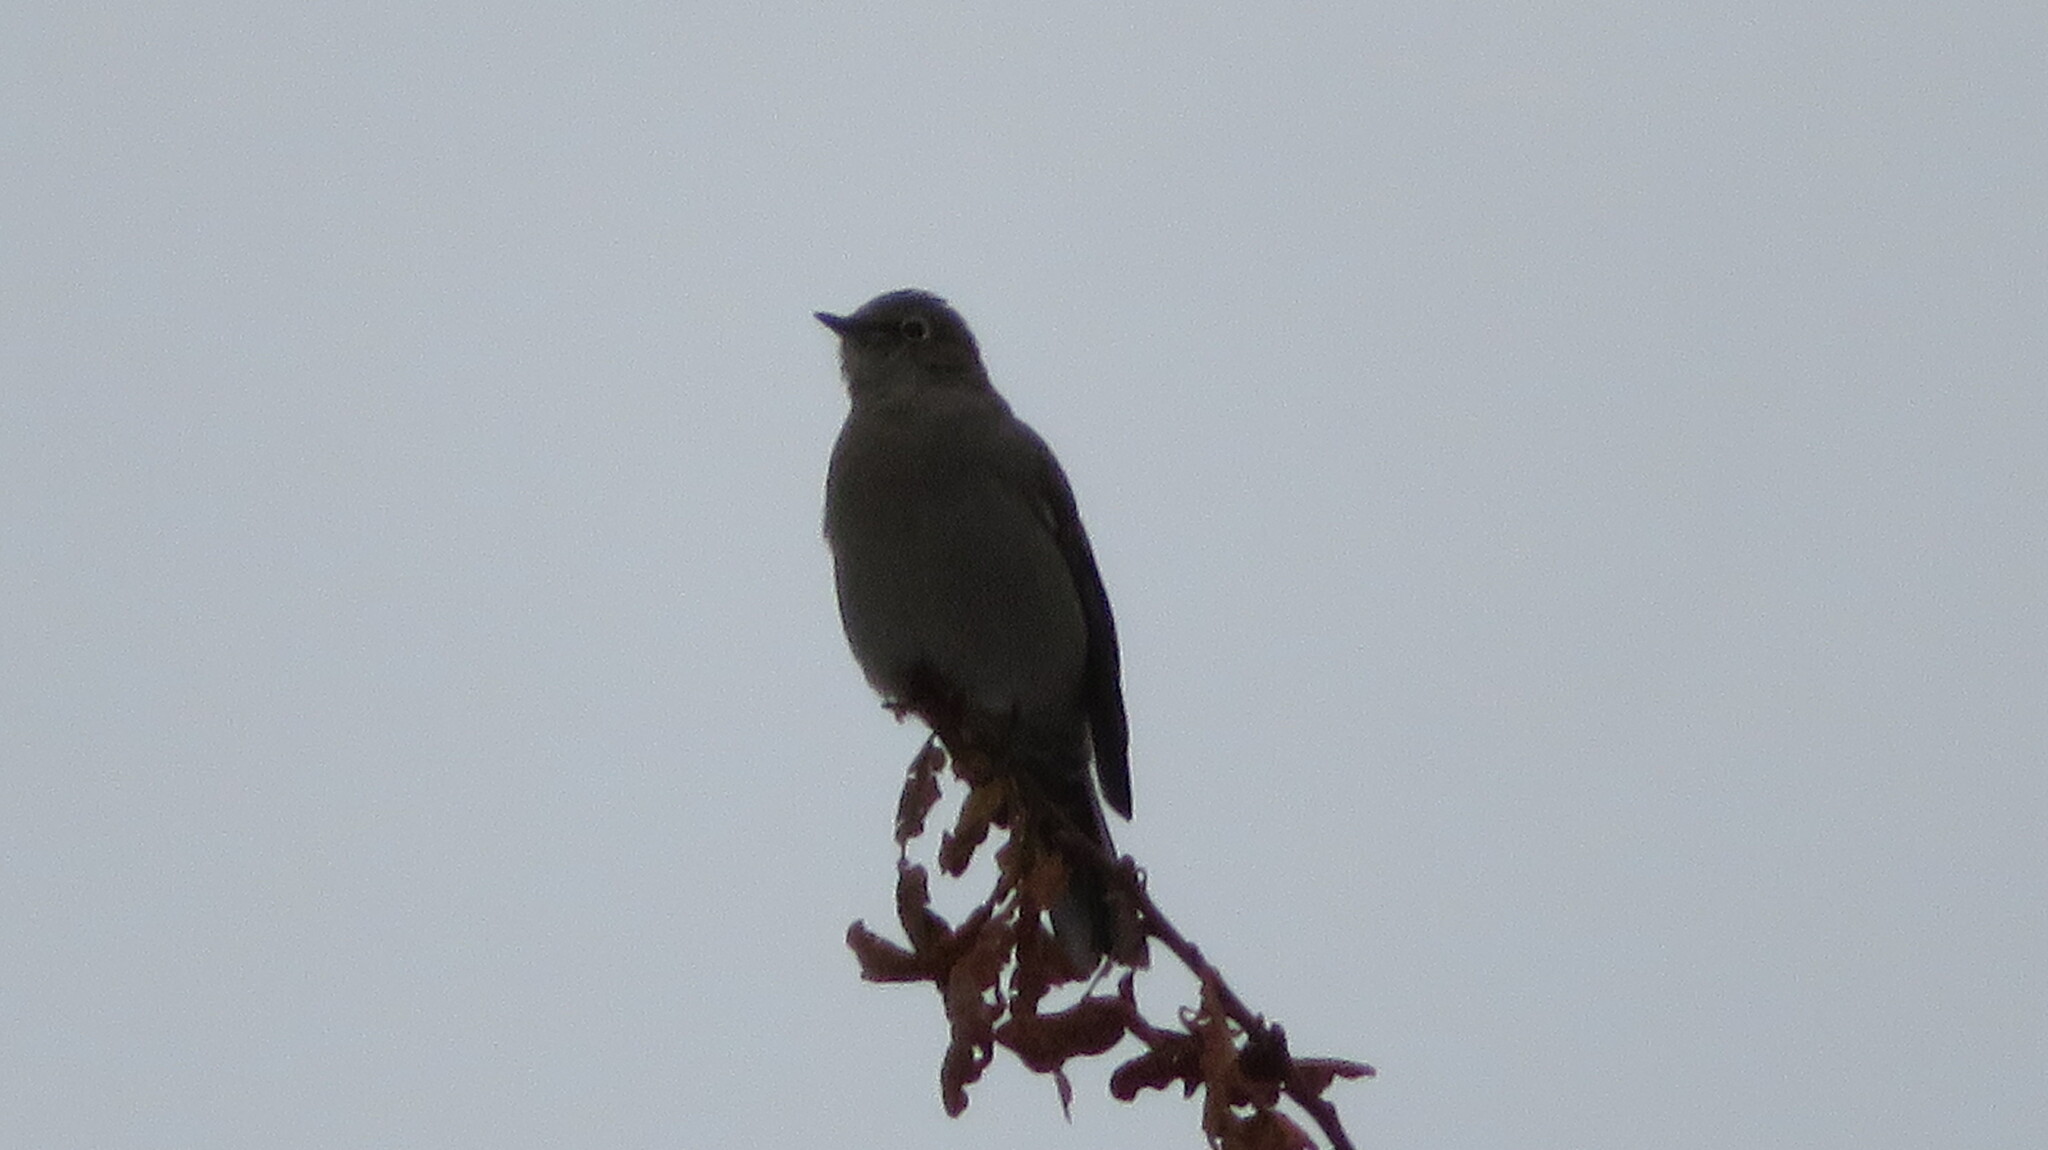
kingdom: Animalia
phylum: Chordata
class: Aves
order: Passeriformes
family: Turdidae
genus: Myadestes
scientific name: Myadestes townsendi
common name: Townsend's solitaire
